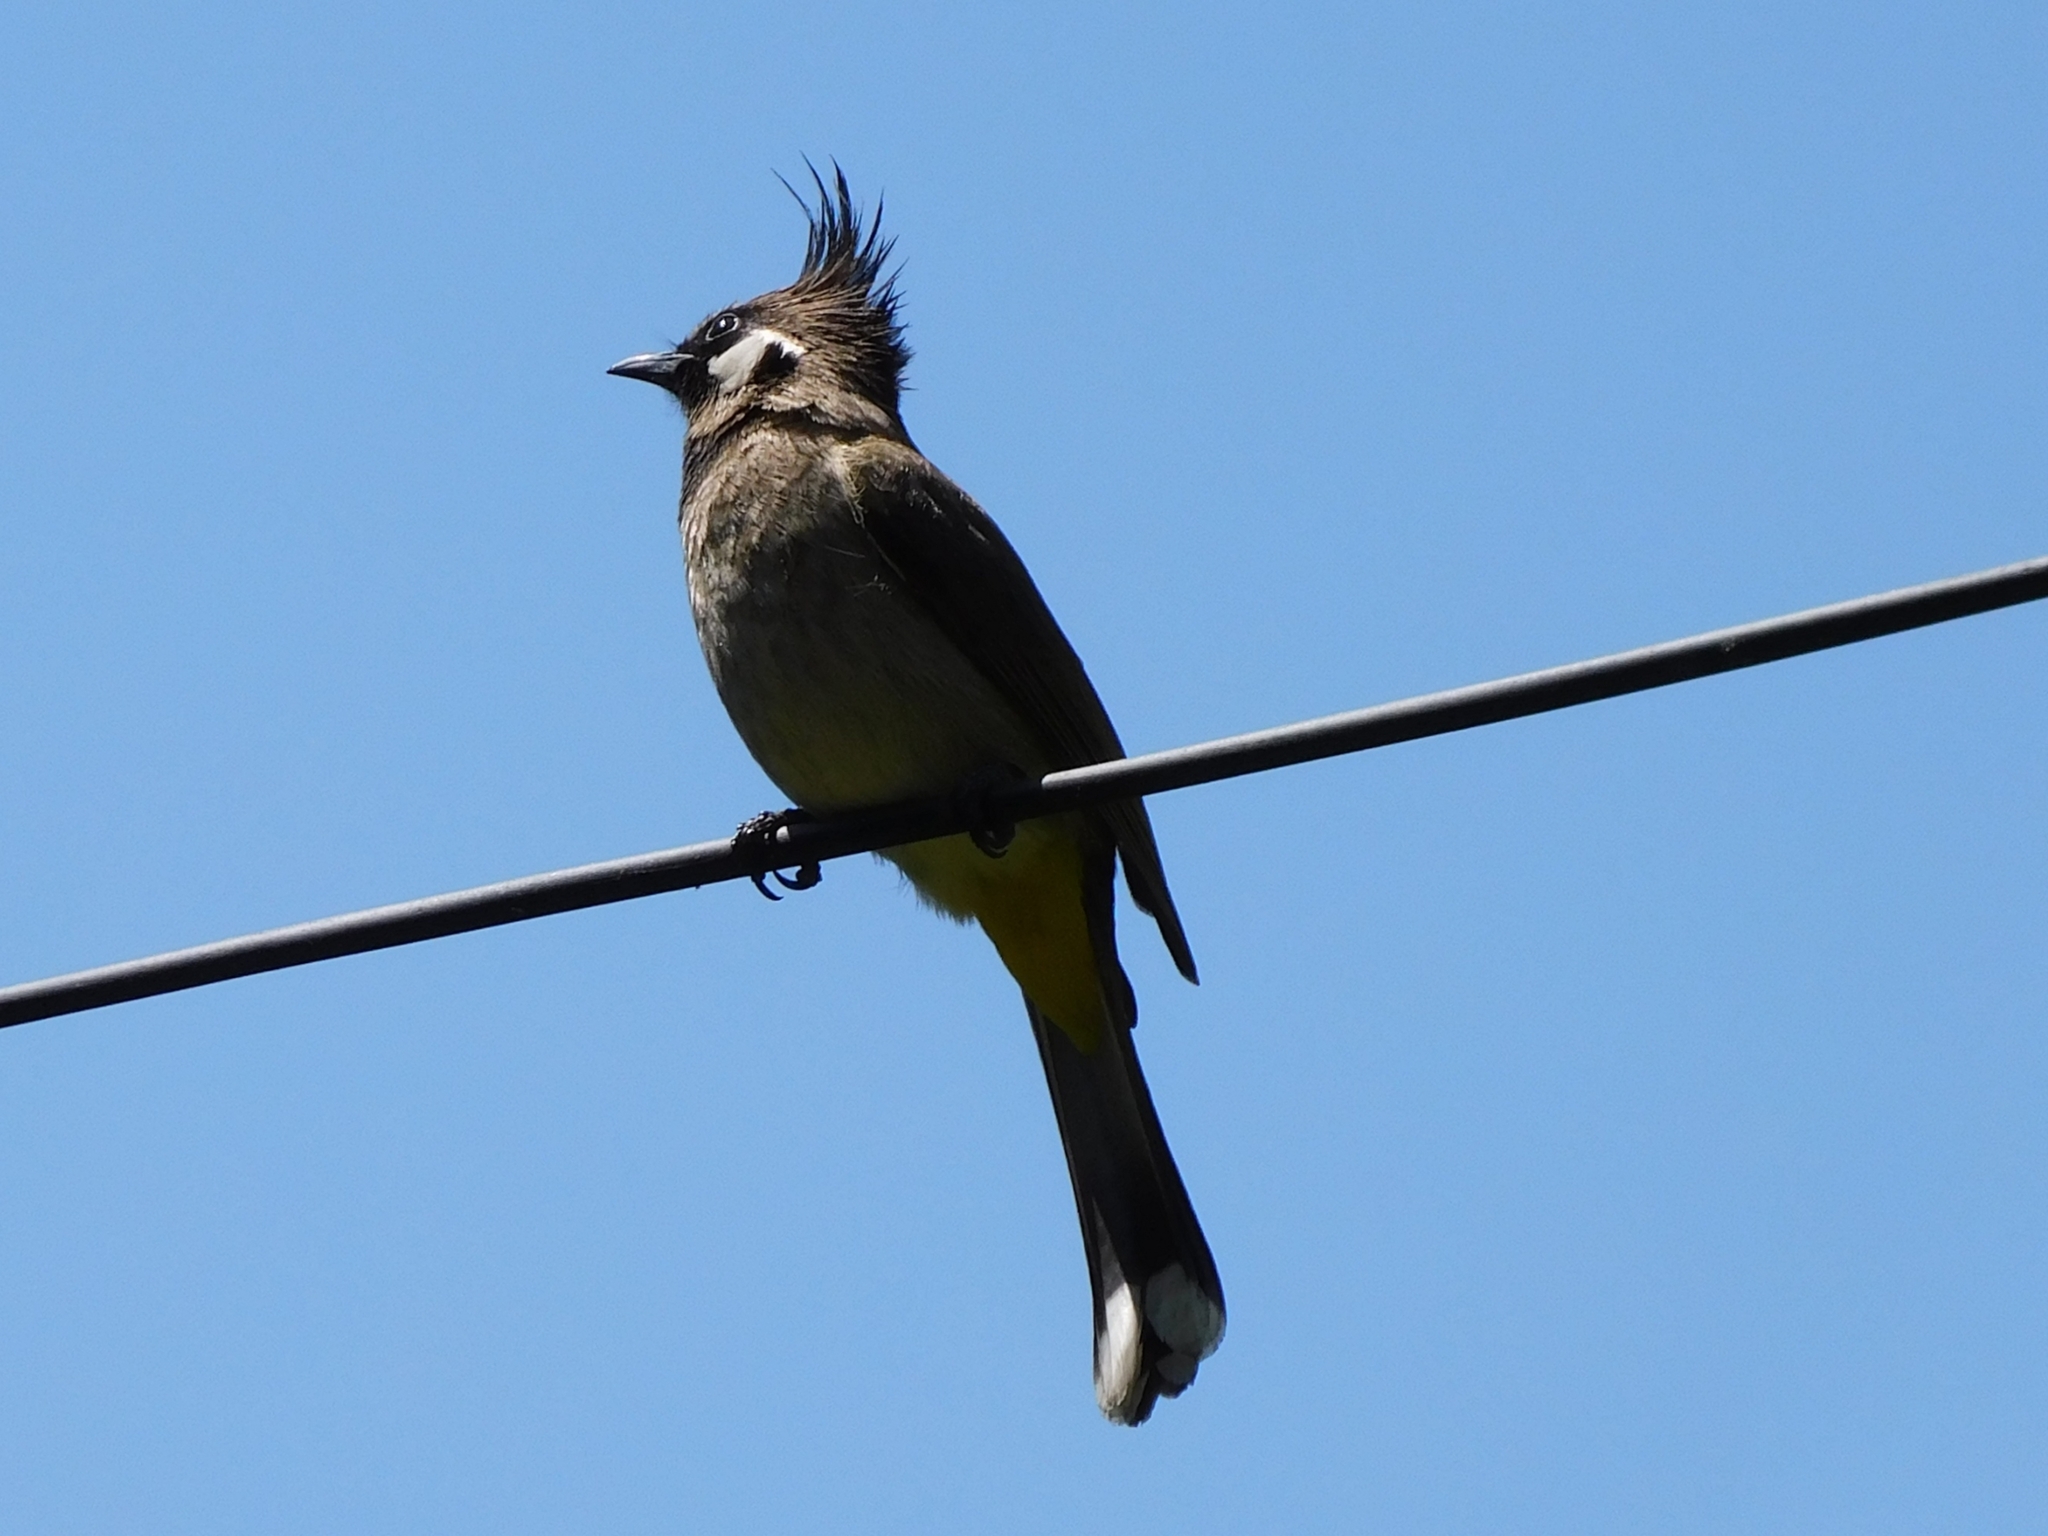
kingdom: Animalia
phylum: Chordata
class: Aves
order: Passeriformes
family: Pycnonotidae
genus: Pycnonotus
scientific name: Pycnonotus leucogenys
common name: Himalayan bulbul
